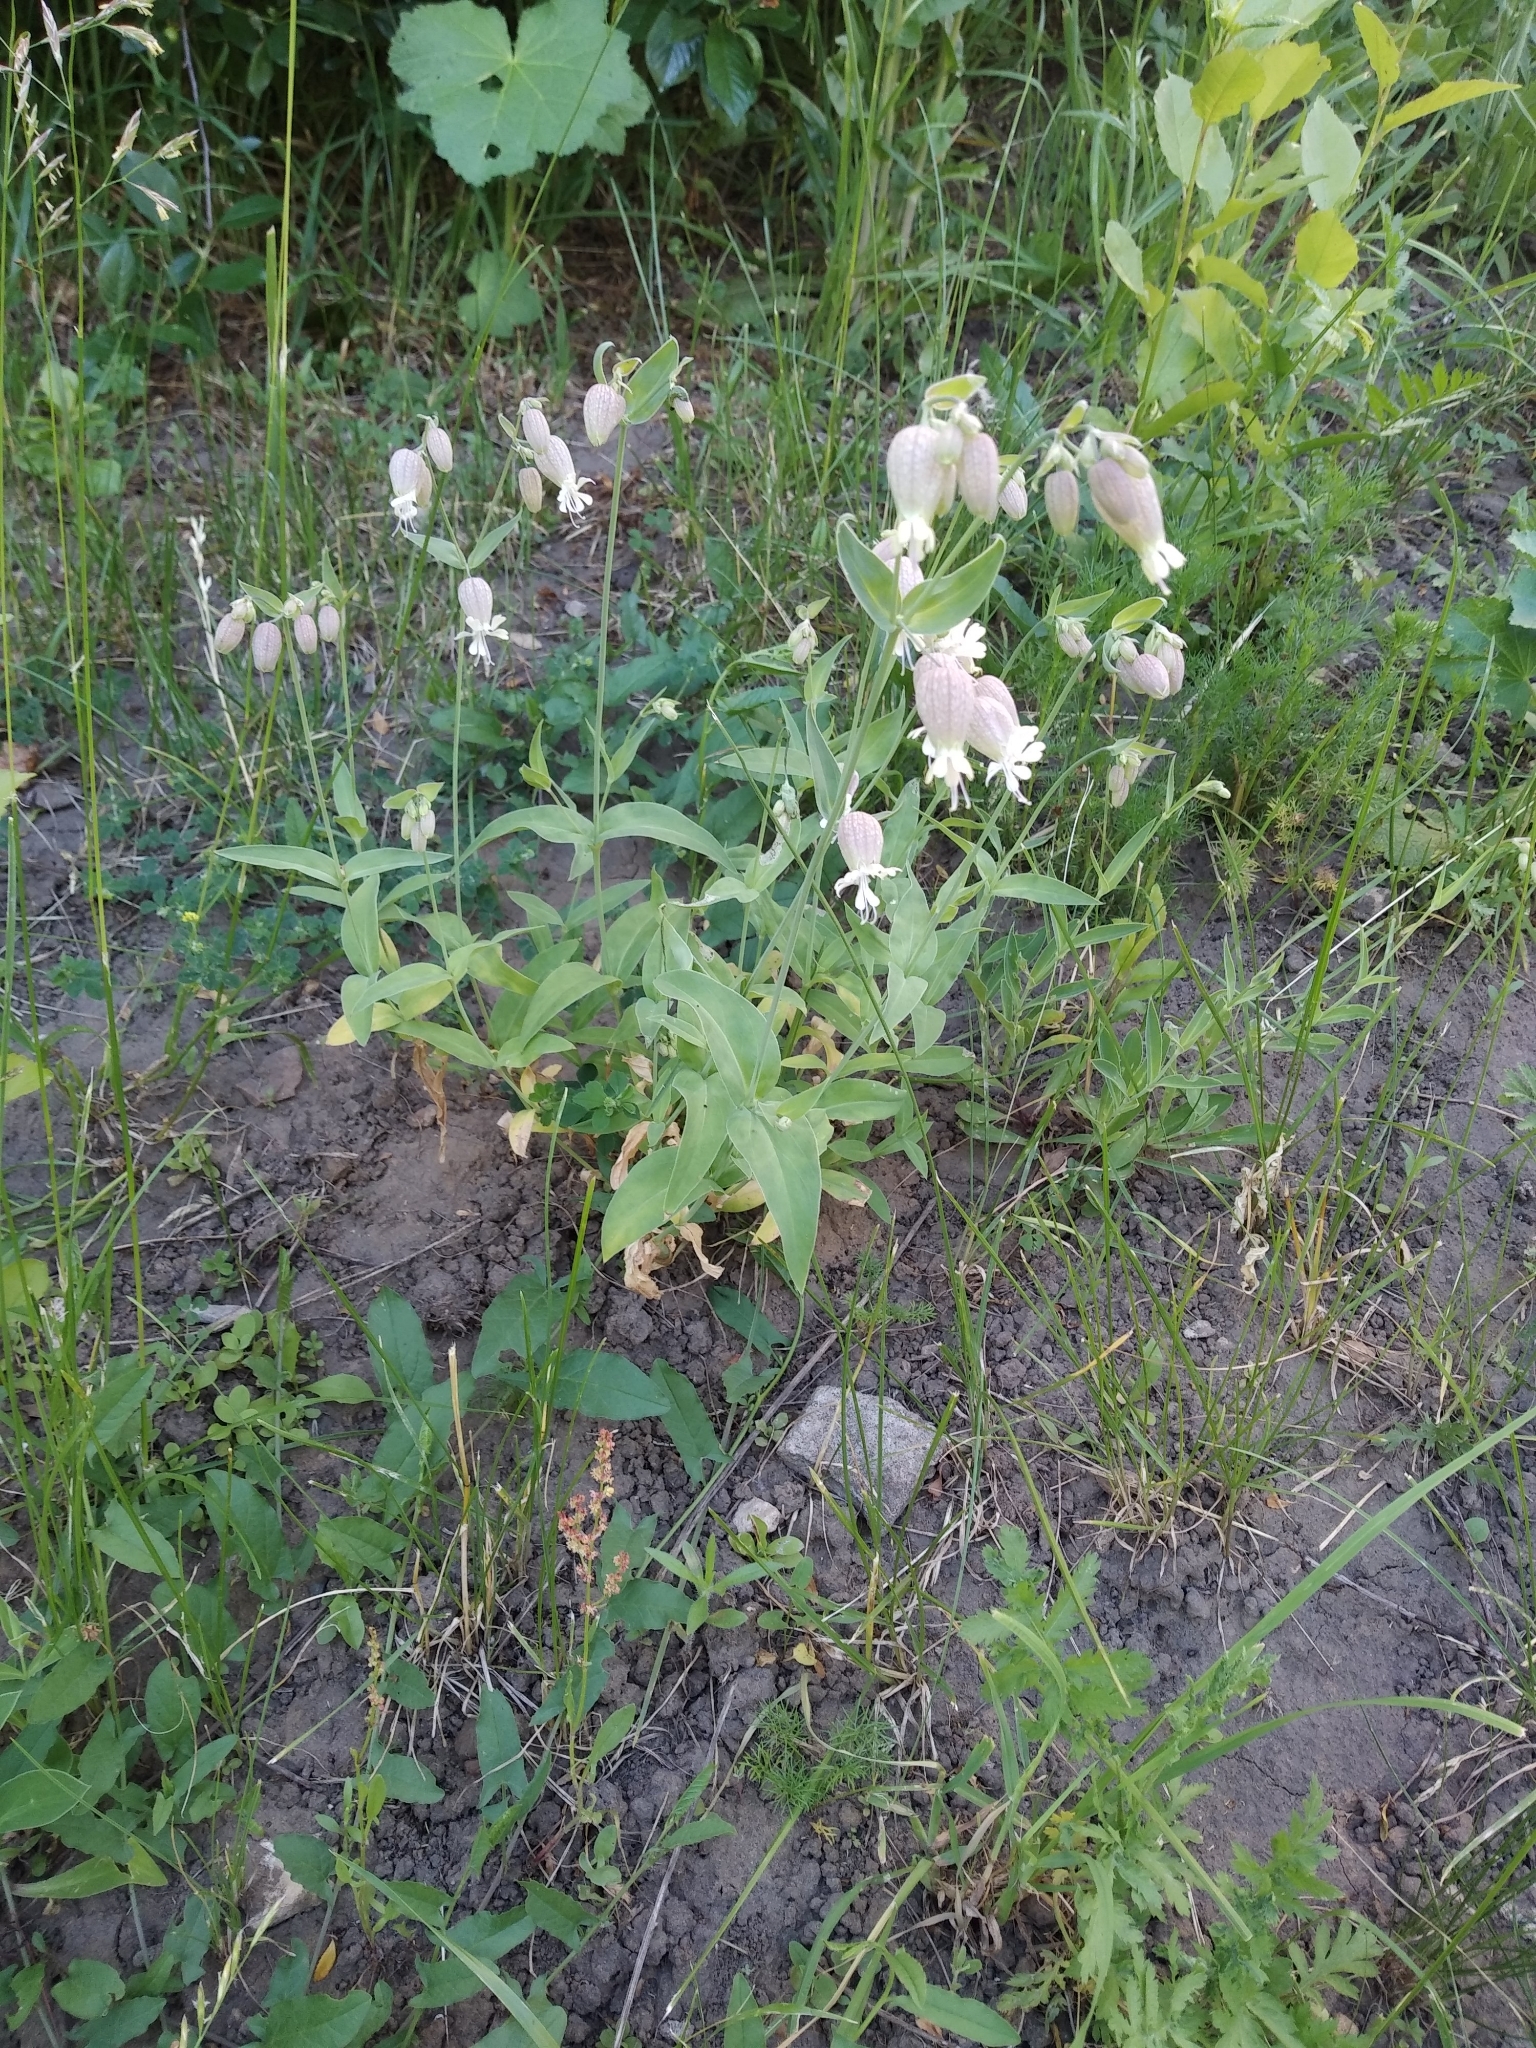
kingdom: Plantae
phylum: Tracheophyta
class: Magnoliopsida
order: Caryophyllales
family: Caryophyllaceae
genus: Silene
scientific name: Silene vulgaris
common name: Bladder campion
